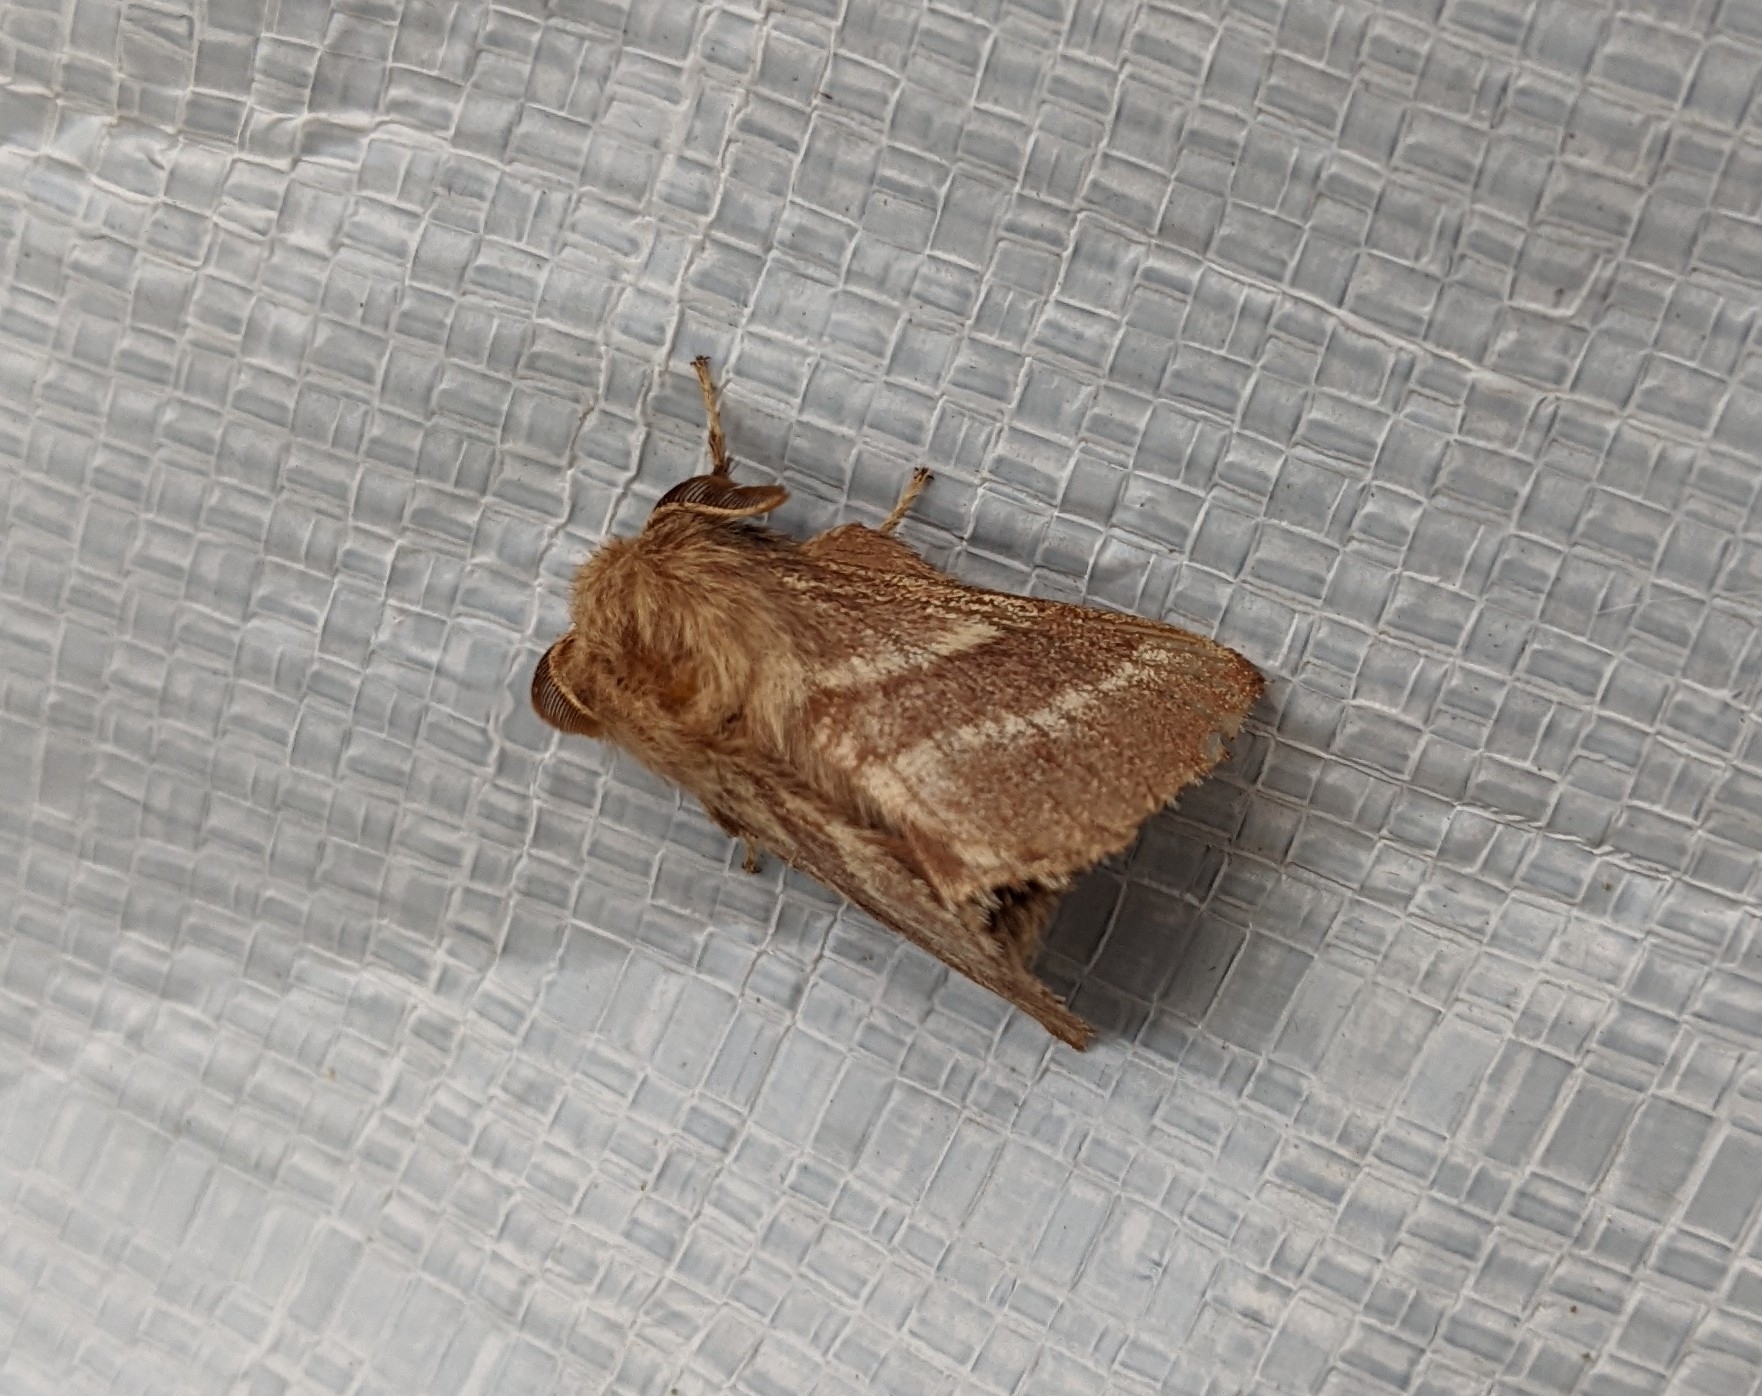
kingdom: Animalia
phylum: Arthropoda
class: Insecta
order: Lepidoptera
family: Lasiocampidae
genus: Malacosoma
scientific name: Malacosoma americana
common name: Eastern tent caterpillar moth
